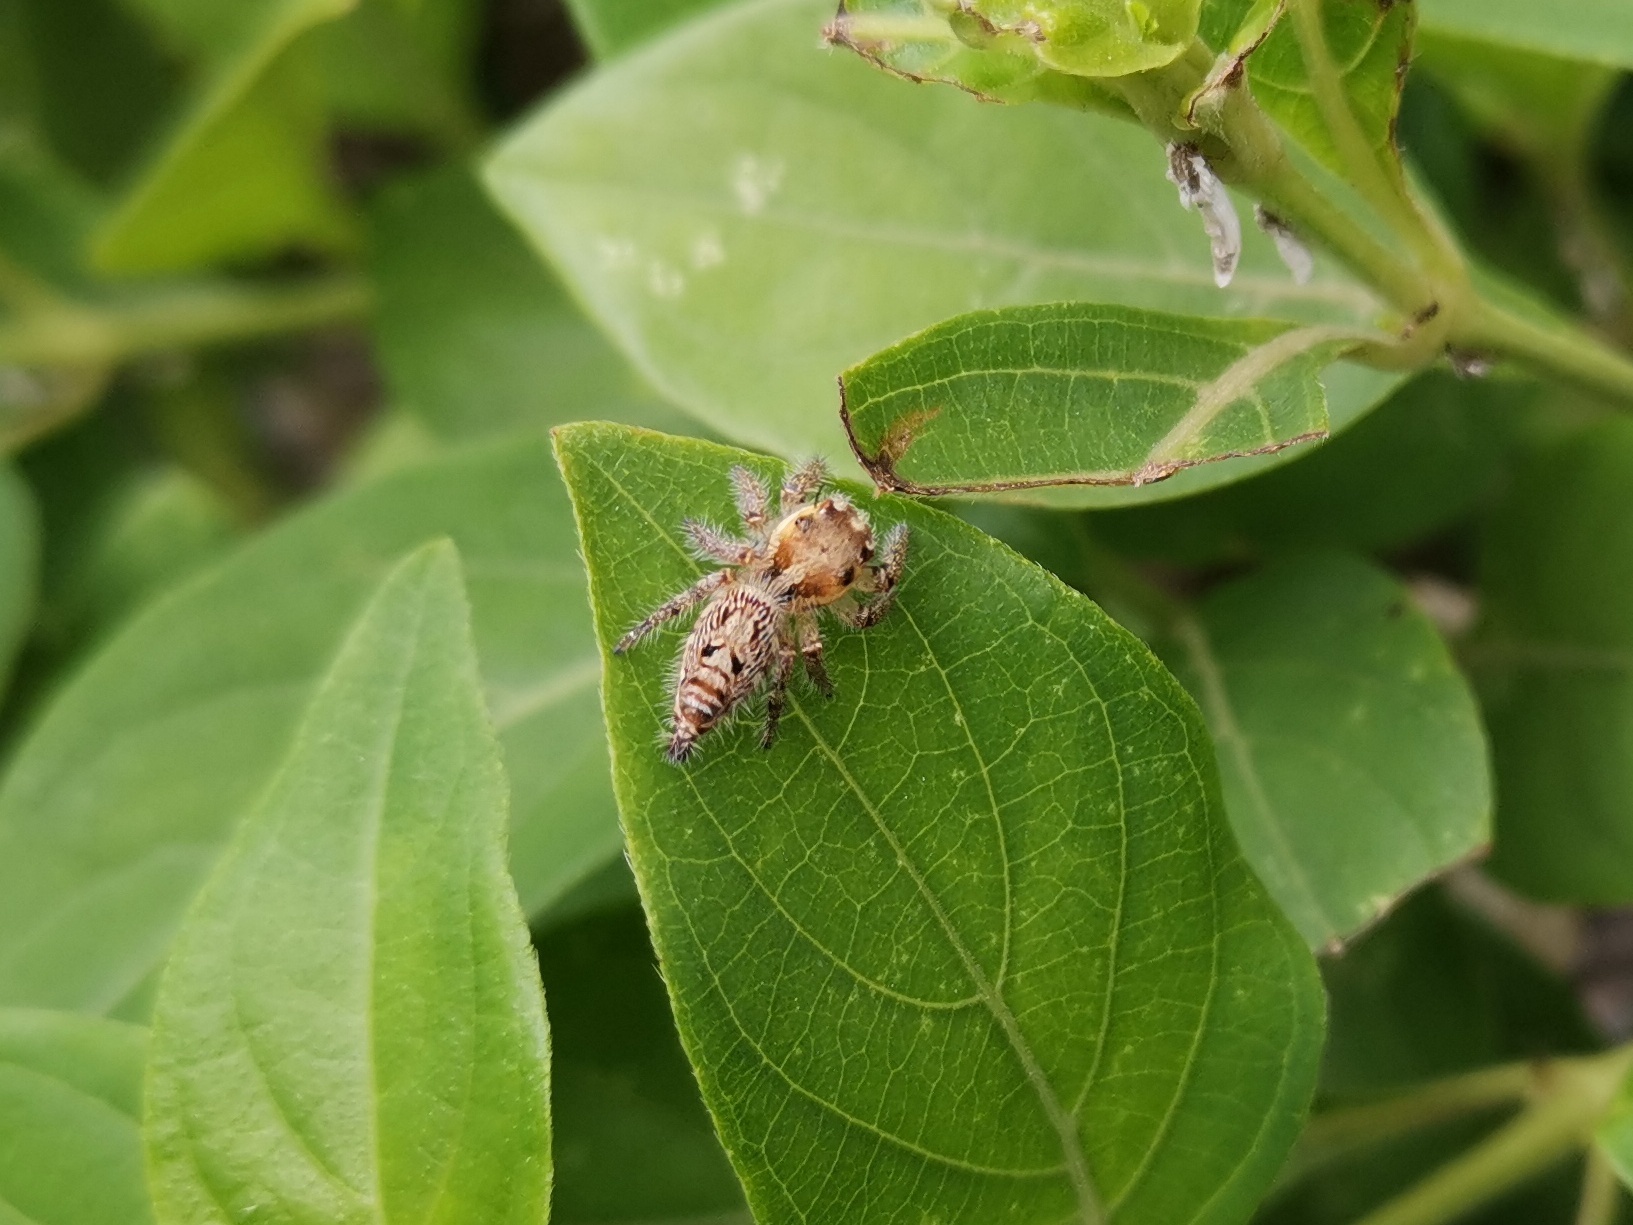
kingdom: Animalia
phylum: Arthropoda
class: Arachnida
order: Araneae
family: Salticidae
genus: Hyllus
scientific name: Hyllus semicupreus
